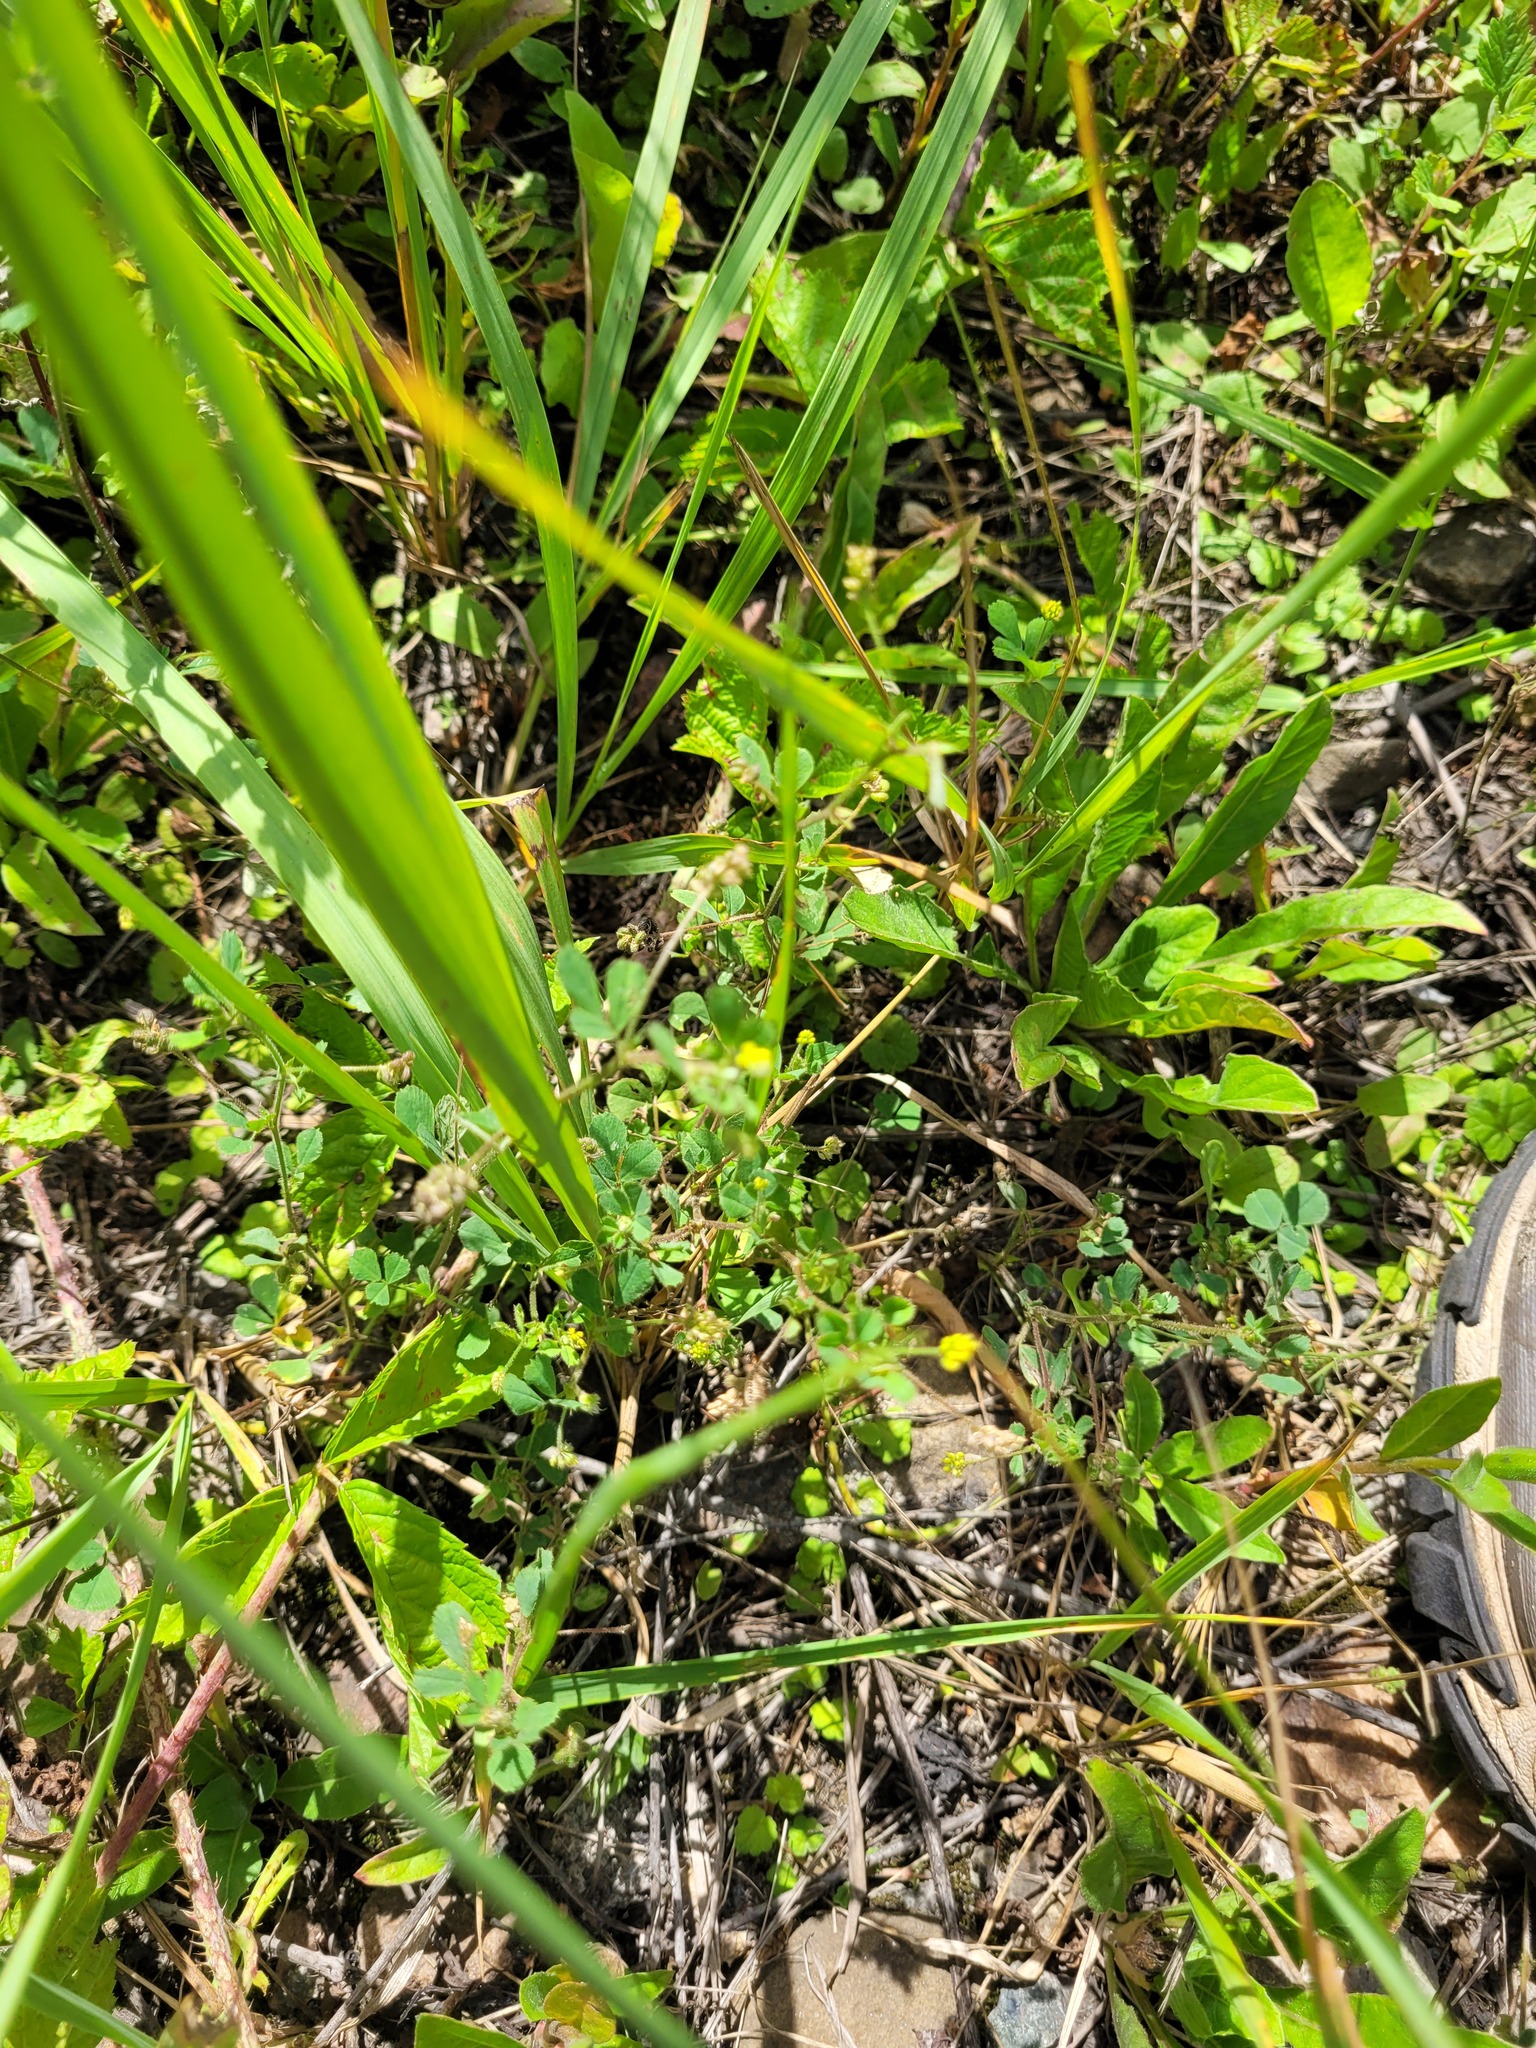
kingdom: Plantae
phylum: Tracheophyta
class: Magnoliopsida
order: Fabales
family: Fabaceae
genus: Medicago
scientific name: Medicago lupulina
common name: Black medick
